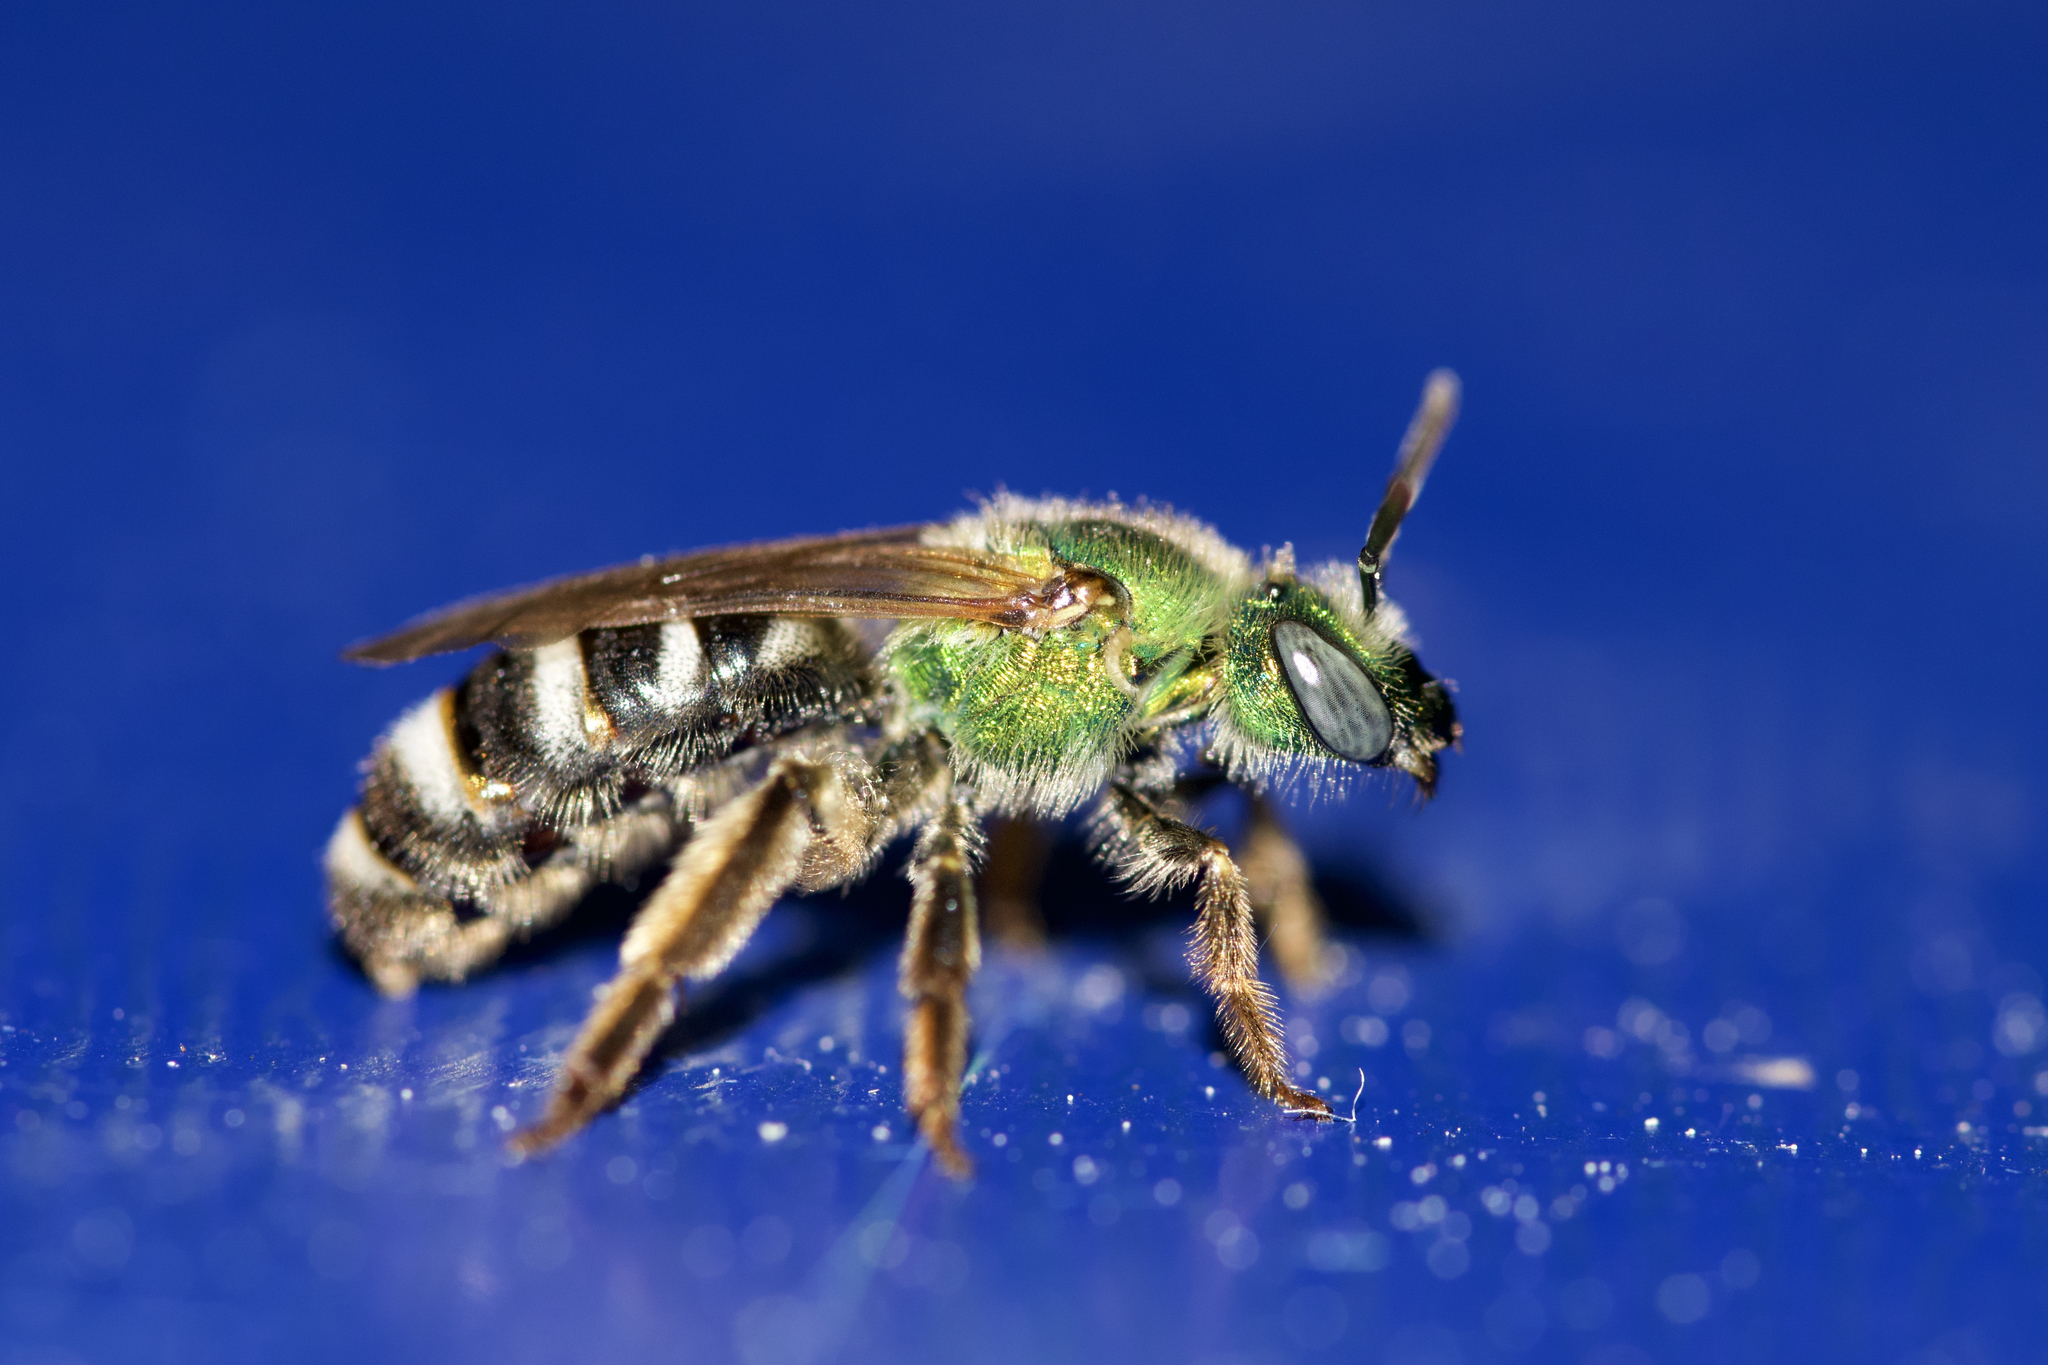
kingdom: Animalia
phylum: Arthropoda
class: Insecta
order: Hymenoptera
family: Halictidae
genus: Agapostemon
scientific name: Agapostemon virescens
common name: Bicolored striped sweat bee
